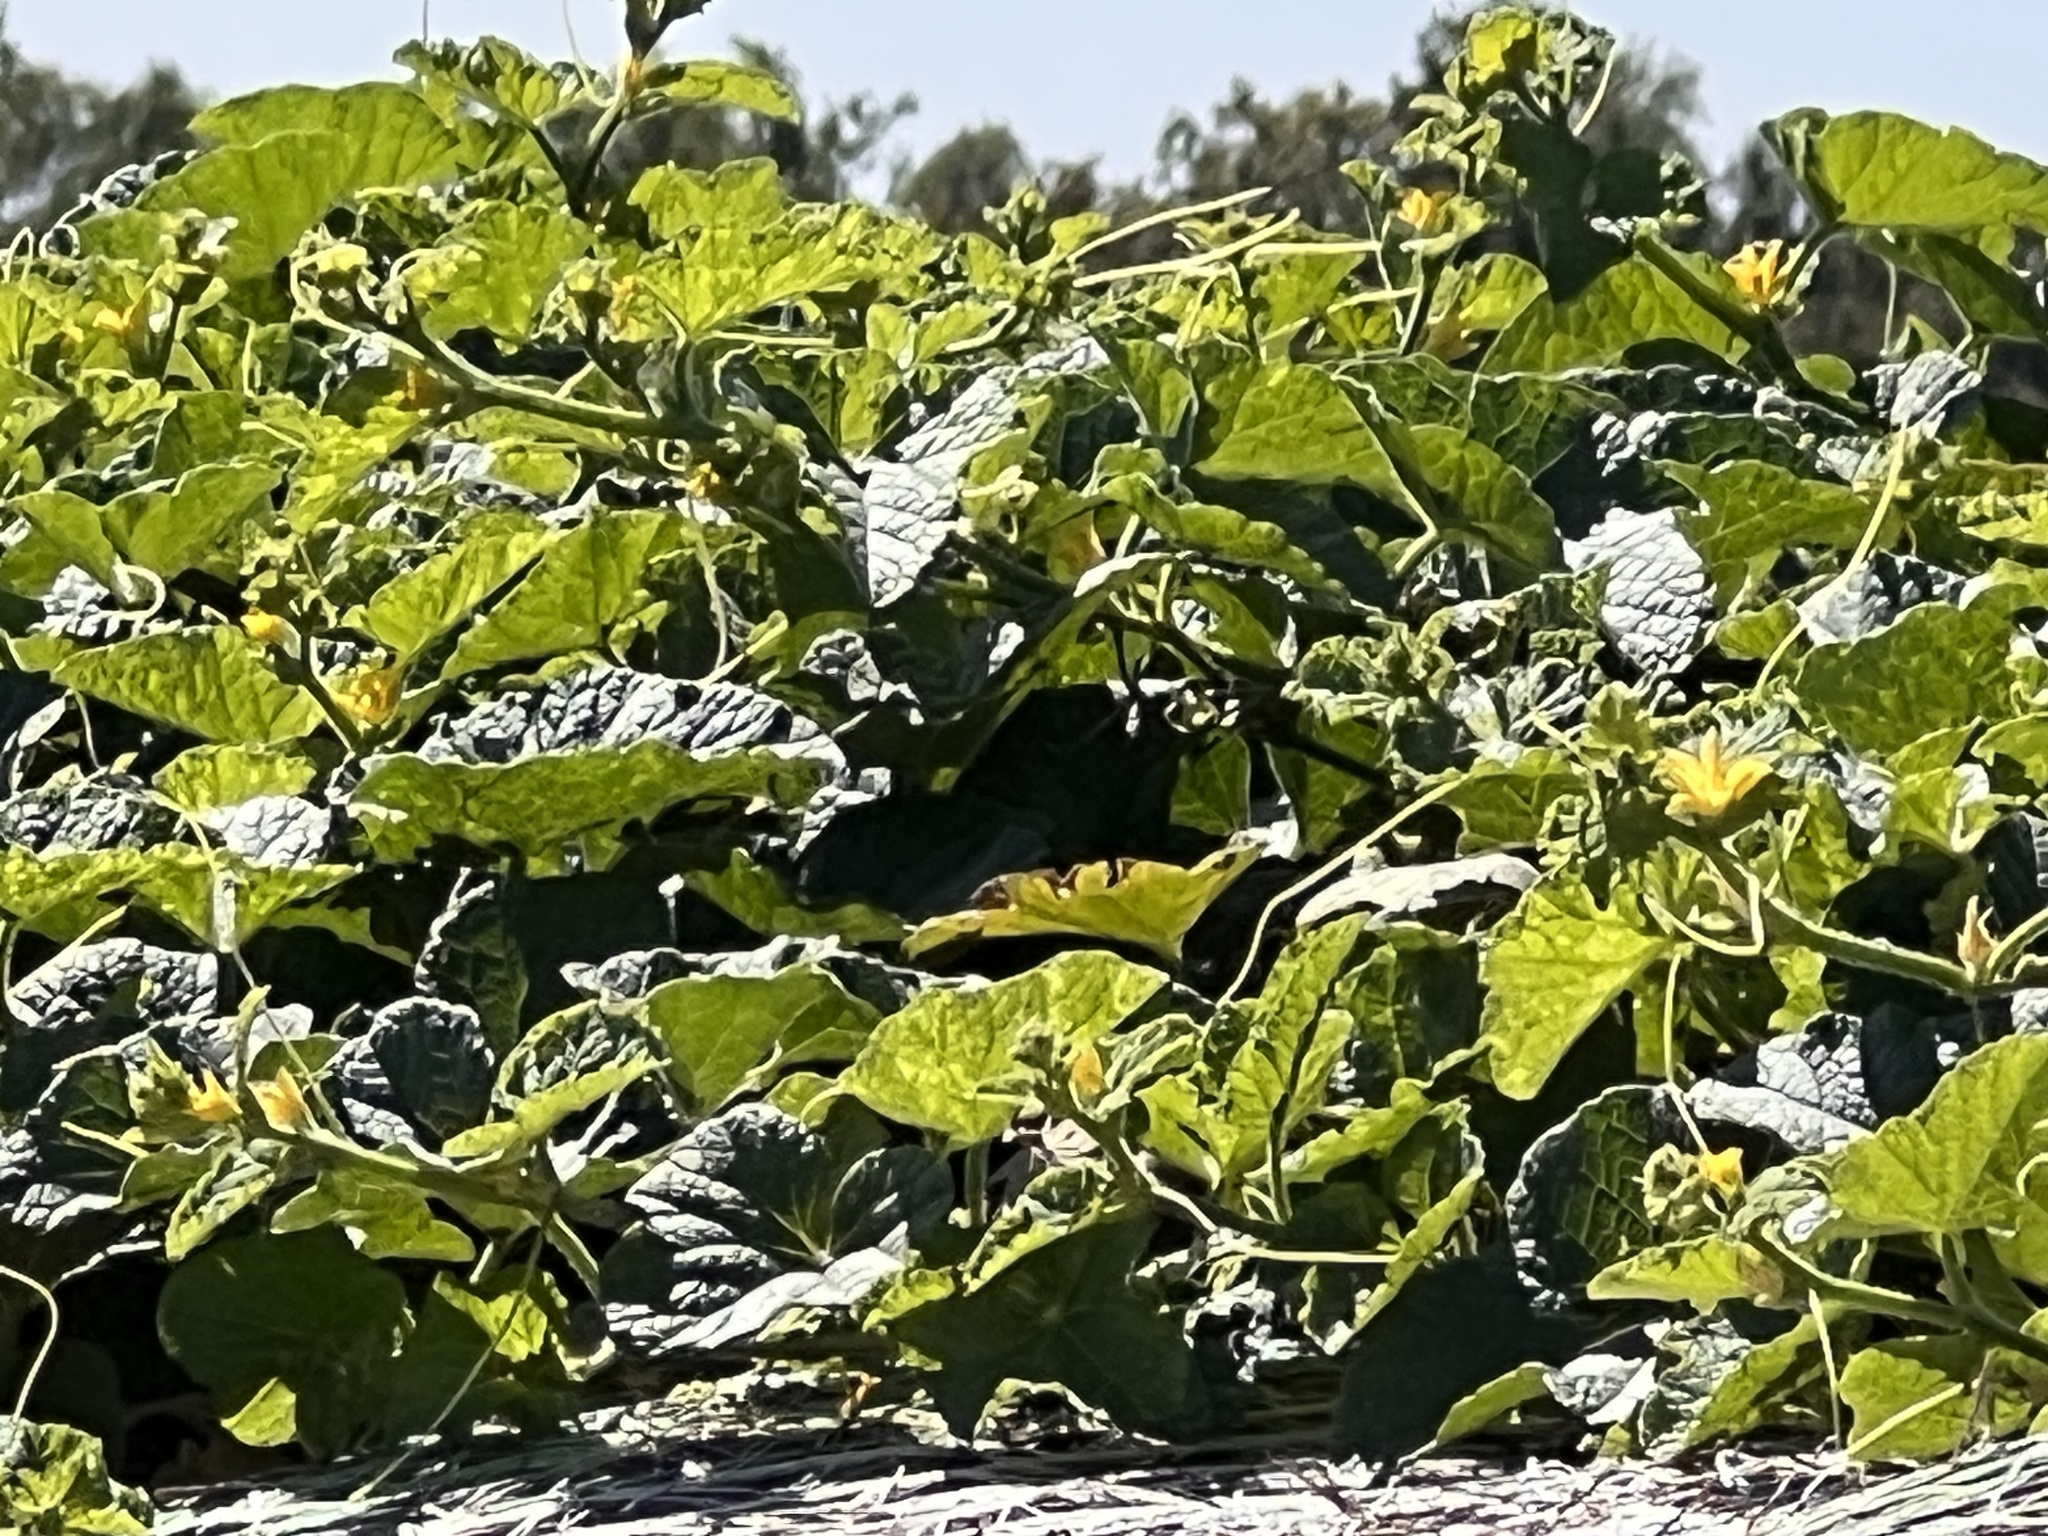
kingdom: Plantae
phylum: Tracheophyta
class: Magnoliopsida
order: Cucurbitales
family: Cucurbitaceae
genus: Cucumis
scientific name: Cucumis melo
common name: Melon
